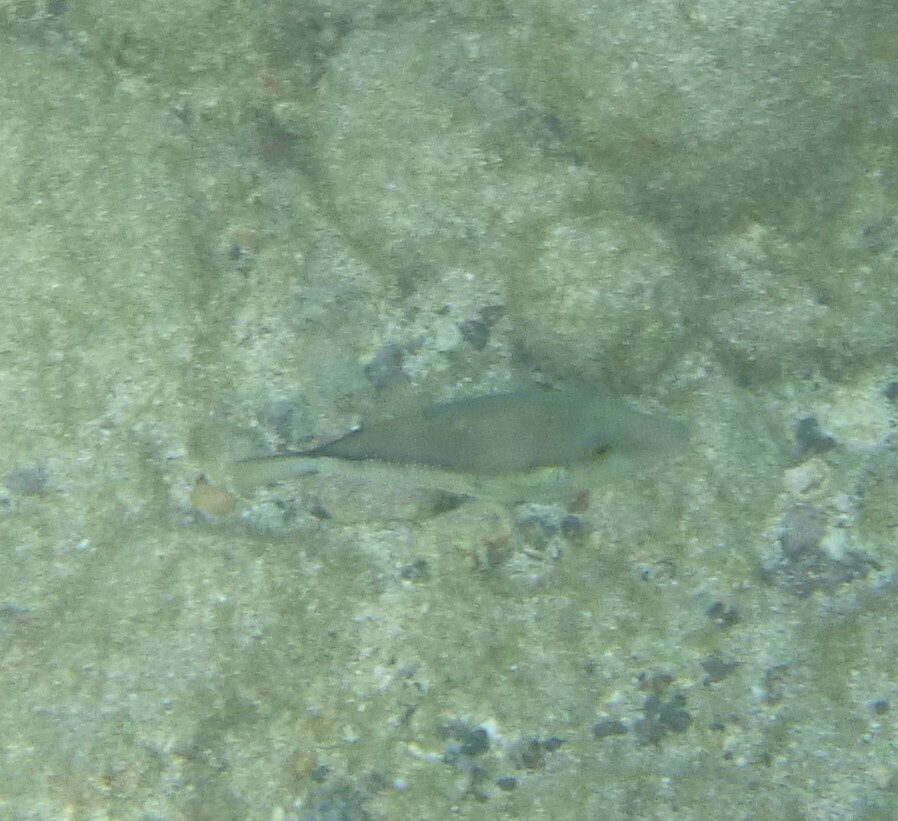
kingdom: Animalia
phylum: Chordata
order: Tetraodontiformes
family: Tetraodontidae
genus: Canthigaster
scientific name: Canthigaster capistrata
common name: Macaronesian sharpnose-puffer
